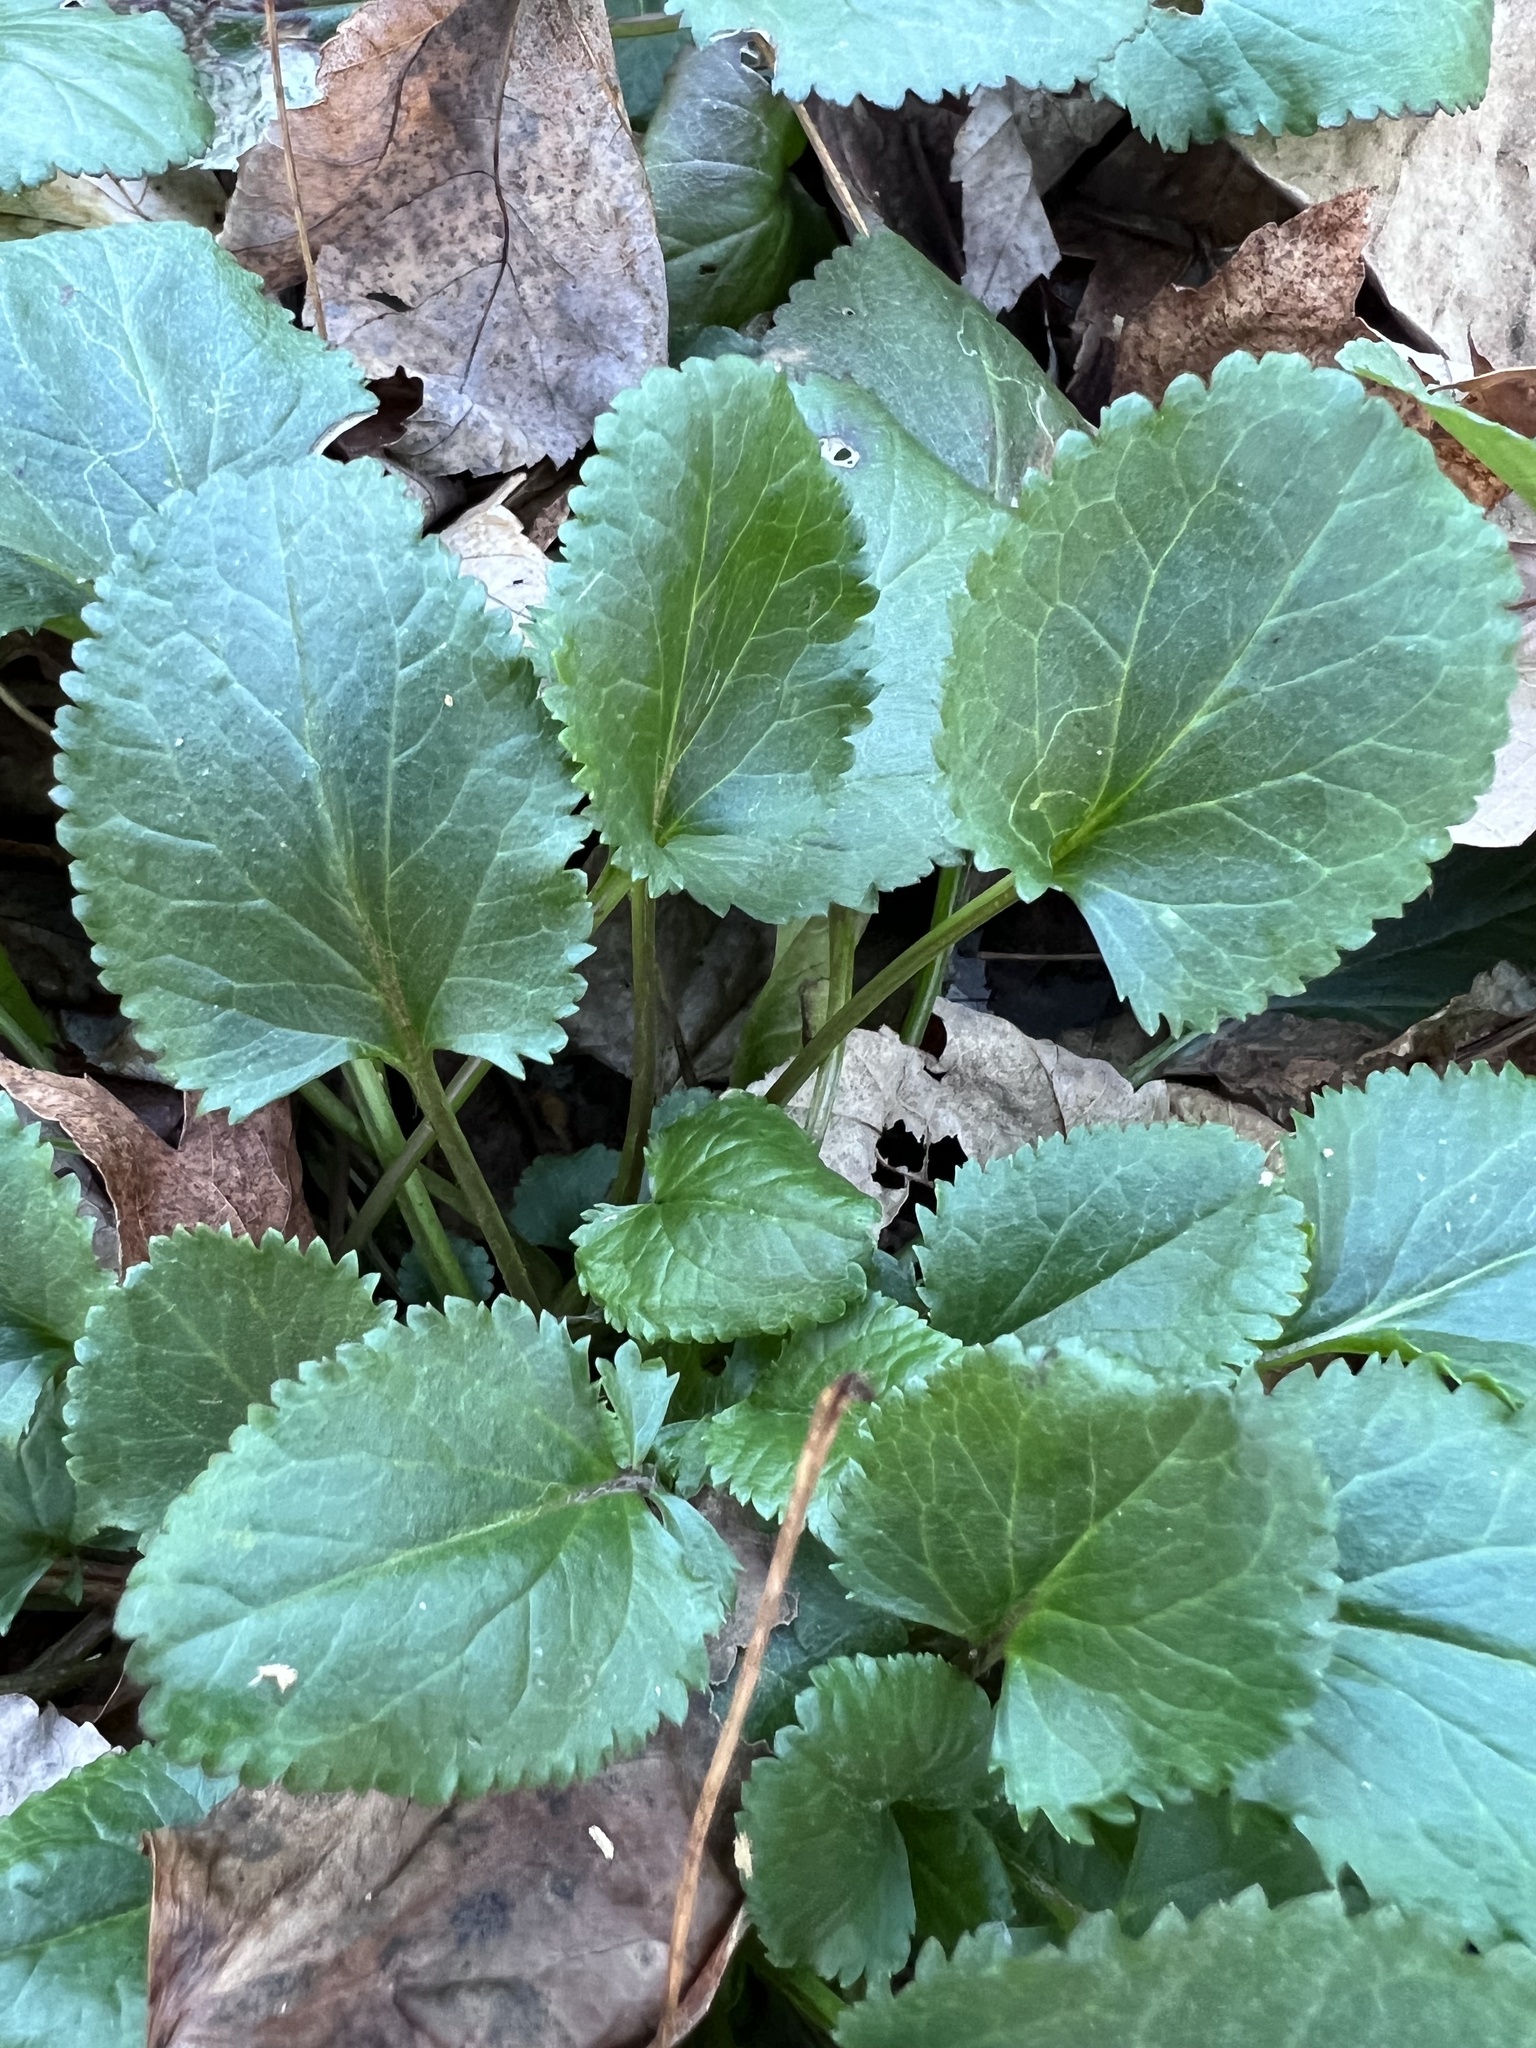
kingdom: Plantae
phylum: Tracheophyta
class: Magnoliopsida
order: Asterales
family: Asteraceae
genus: Packera
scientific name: Packera aurea
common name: Golden groundsel
